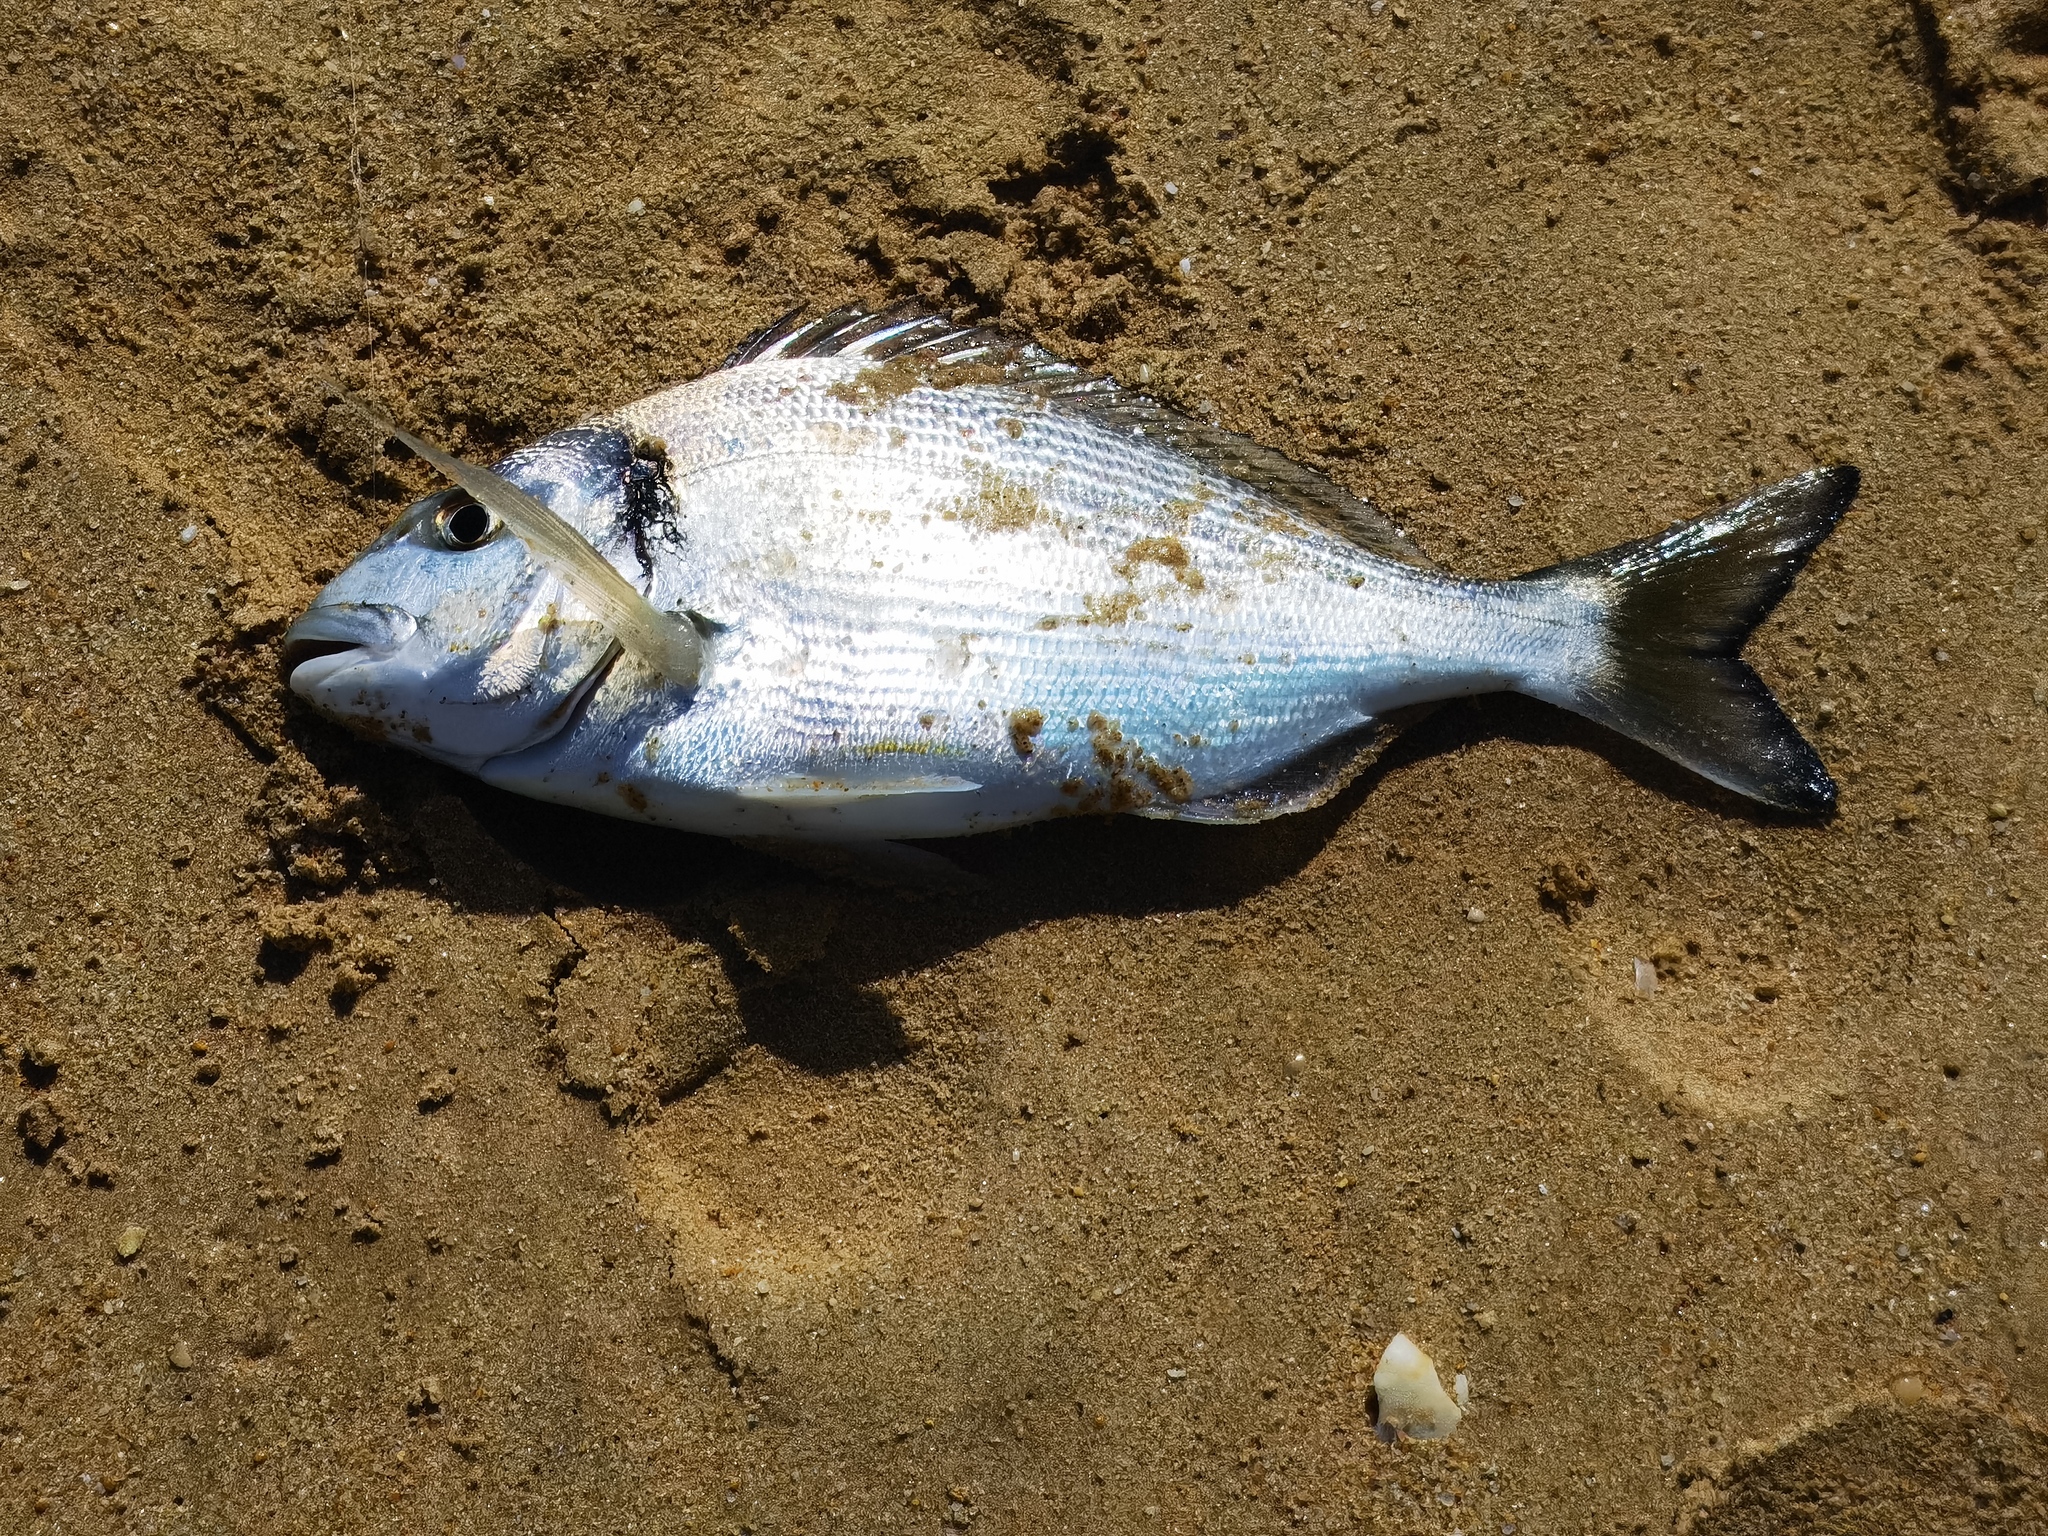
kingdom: Animalia
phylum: Chordata
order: Perciformes
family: Sparidae
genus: Sparus
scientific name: Sparus aurata
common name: Gilthead
